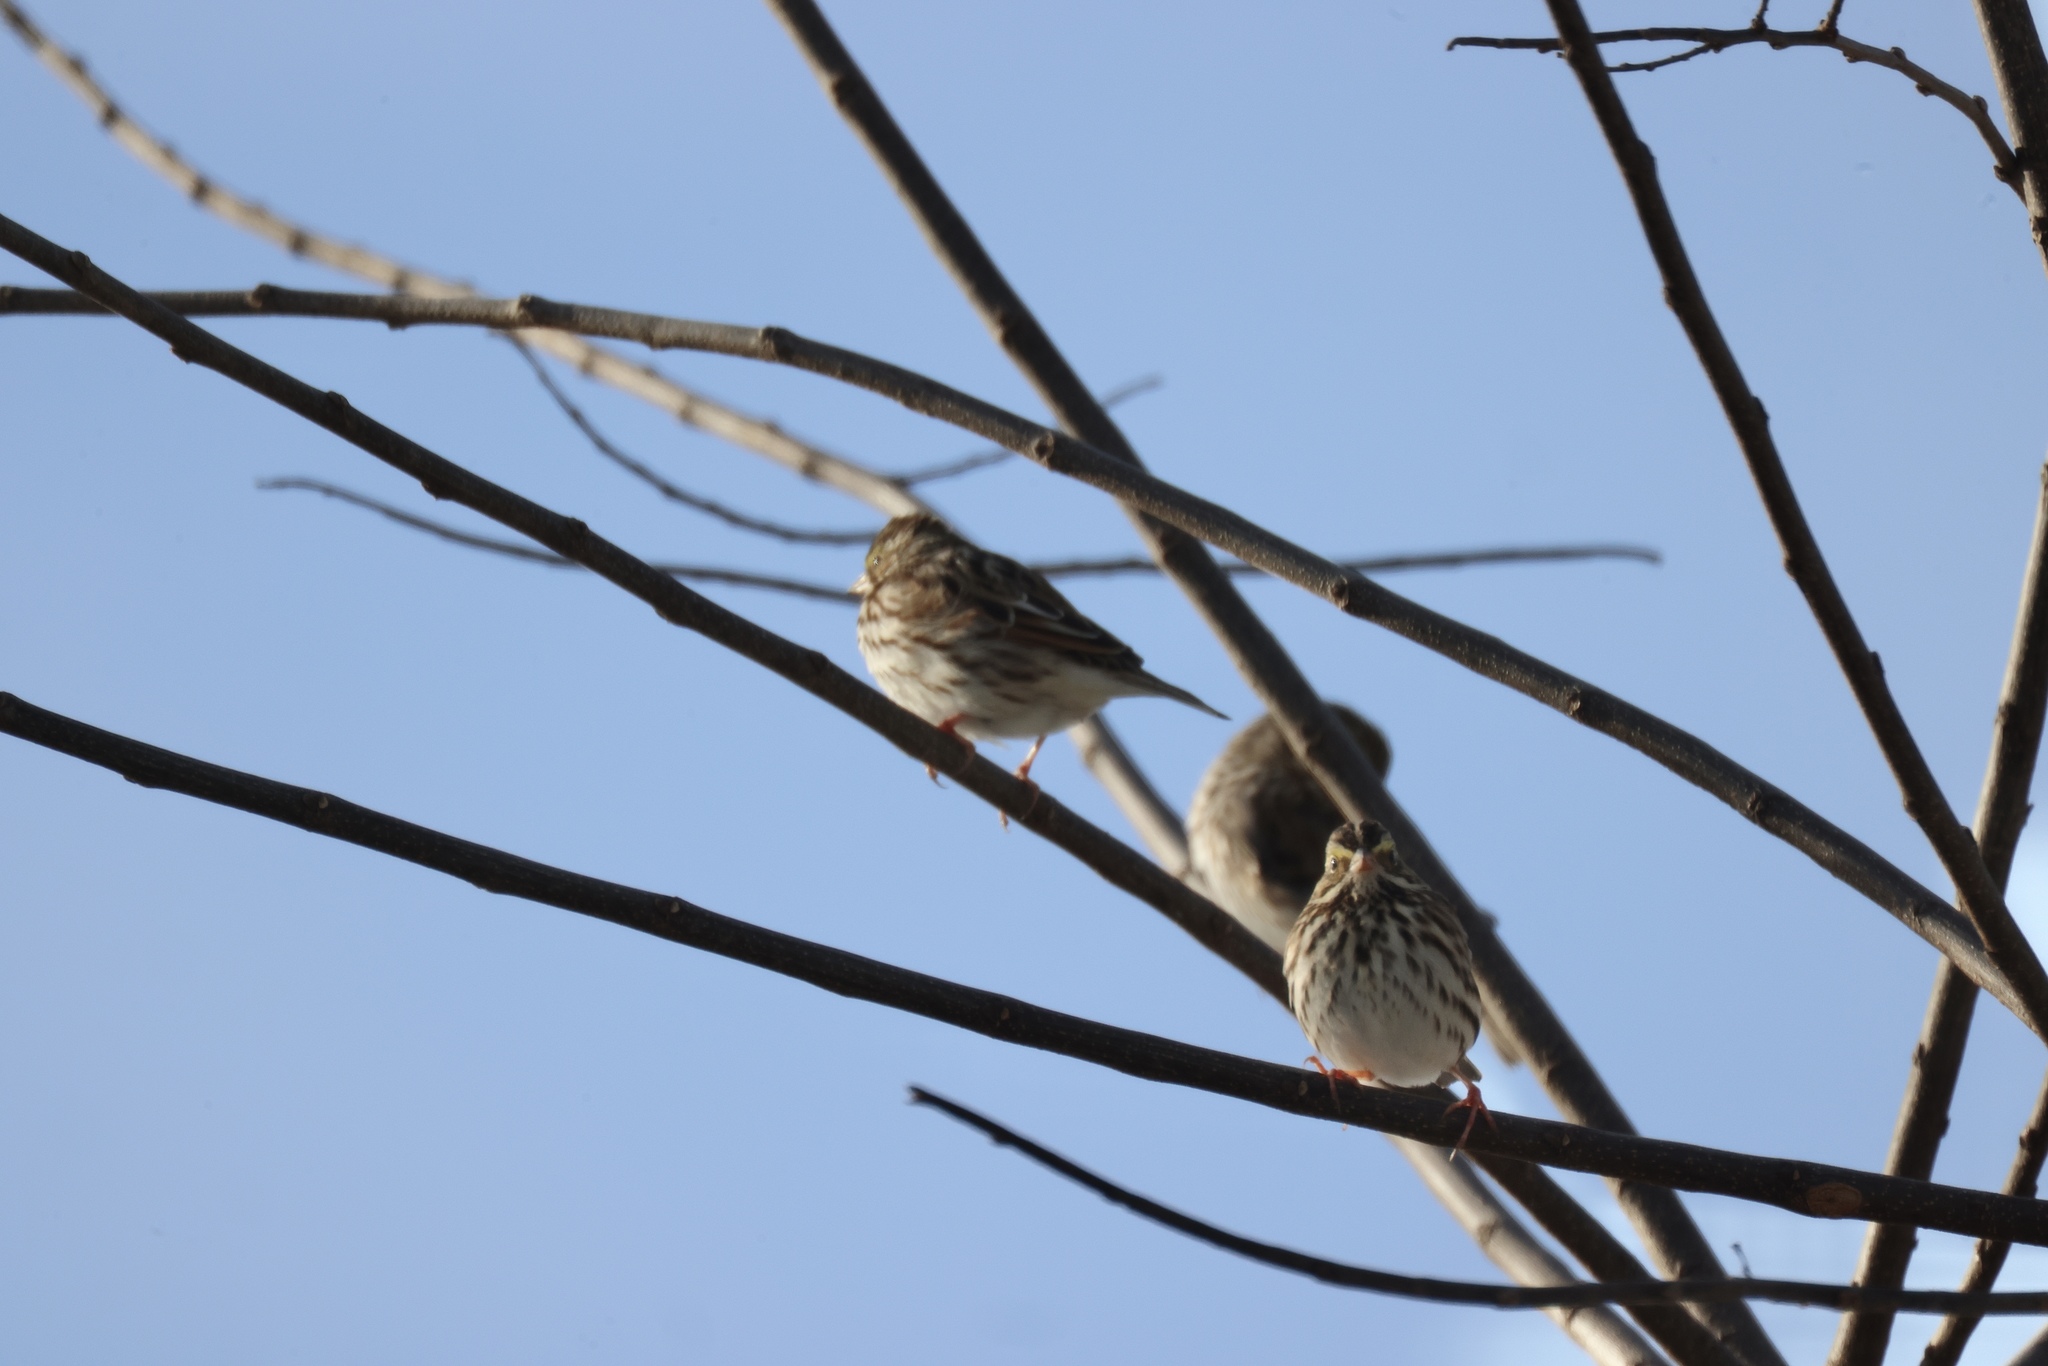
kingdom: Animalia
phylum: Chordata
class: Aves
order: Passeriformes
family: Passerellidae
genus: Passerculus
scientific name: Passerculus sandwichensis
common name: Savannah sparrow
